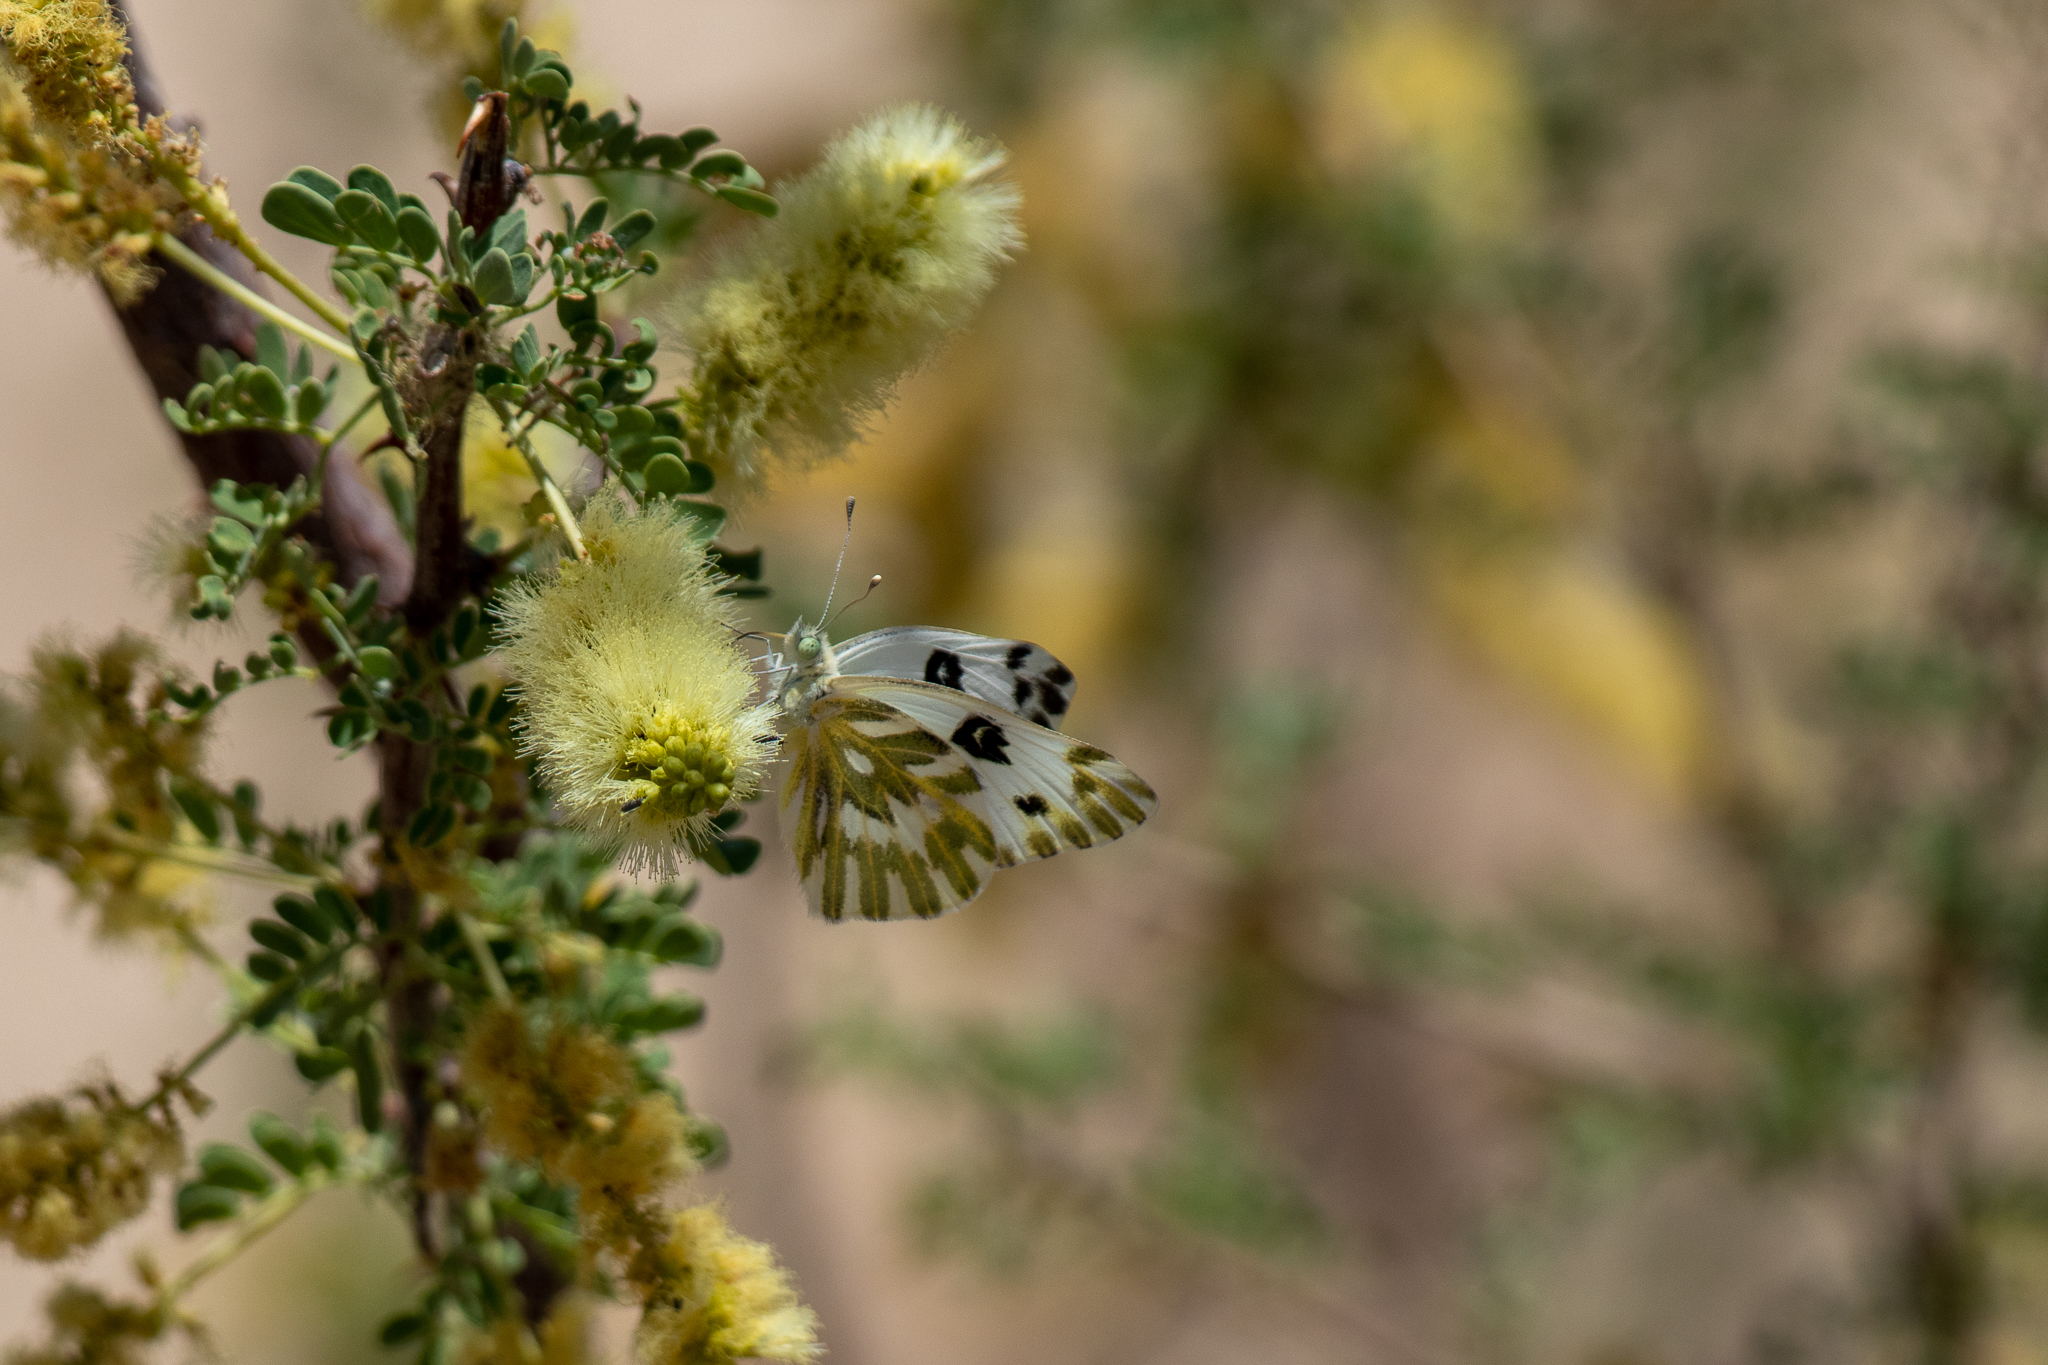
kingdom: Animalia
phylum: Arthropoda
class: Insecta
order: Lepidoptera
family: Pieridae
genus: Pontia
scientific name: Pontia beckerii
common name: Becker's white
